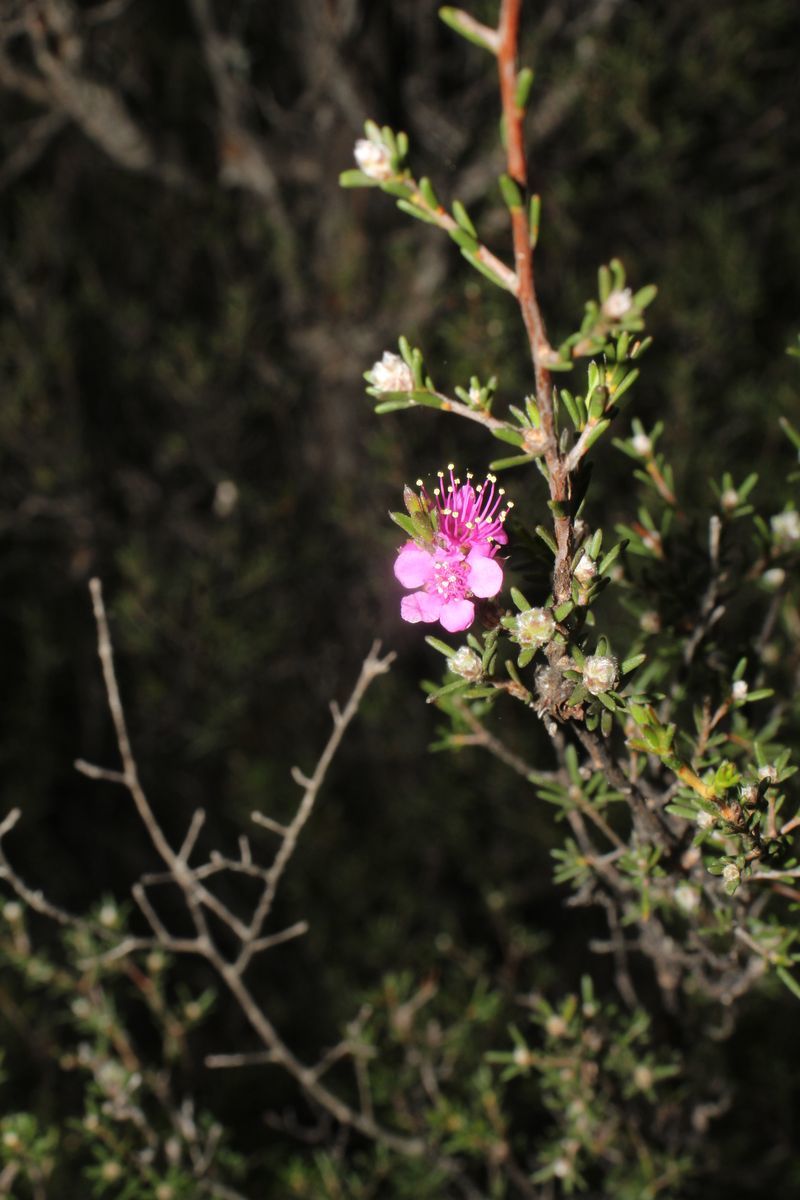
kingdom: Plantae
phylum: Tracheophyta
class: Magnoliopsida
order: Myrtales
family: Myrtaceae
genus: Hypocalymma
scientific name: Hypocalymma asperum
